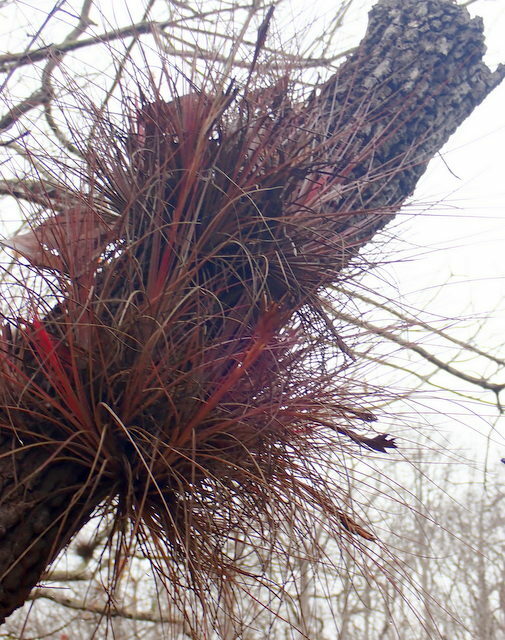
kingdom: Plantae
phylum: Tracheophyta
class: Liliopsida
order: Poales
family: Bromeliaceae
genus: Tillandsia
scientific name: Tillandsia bartramii
